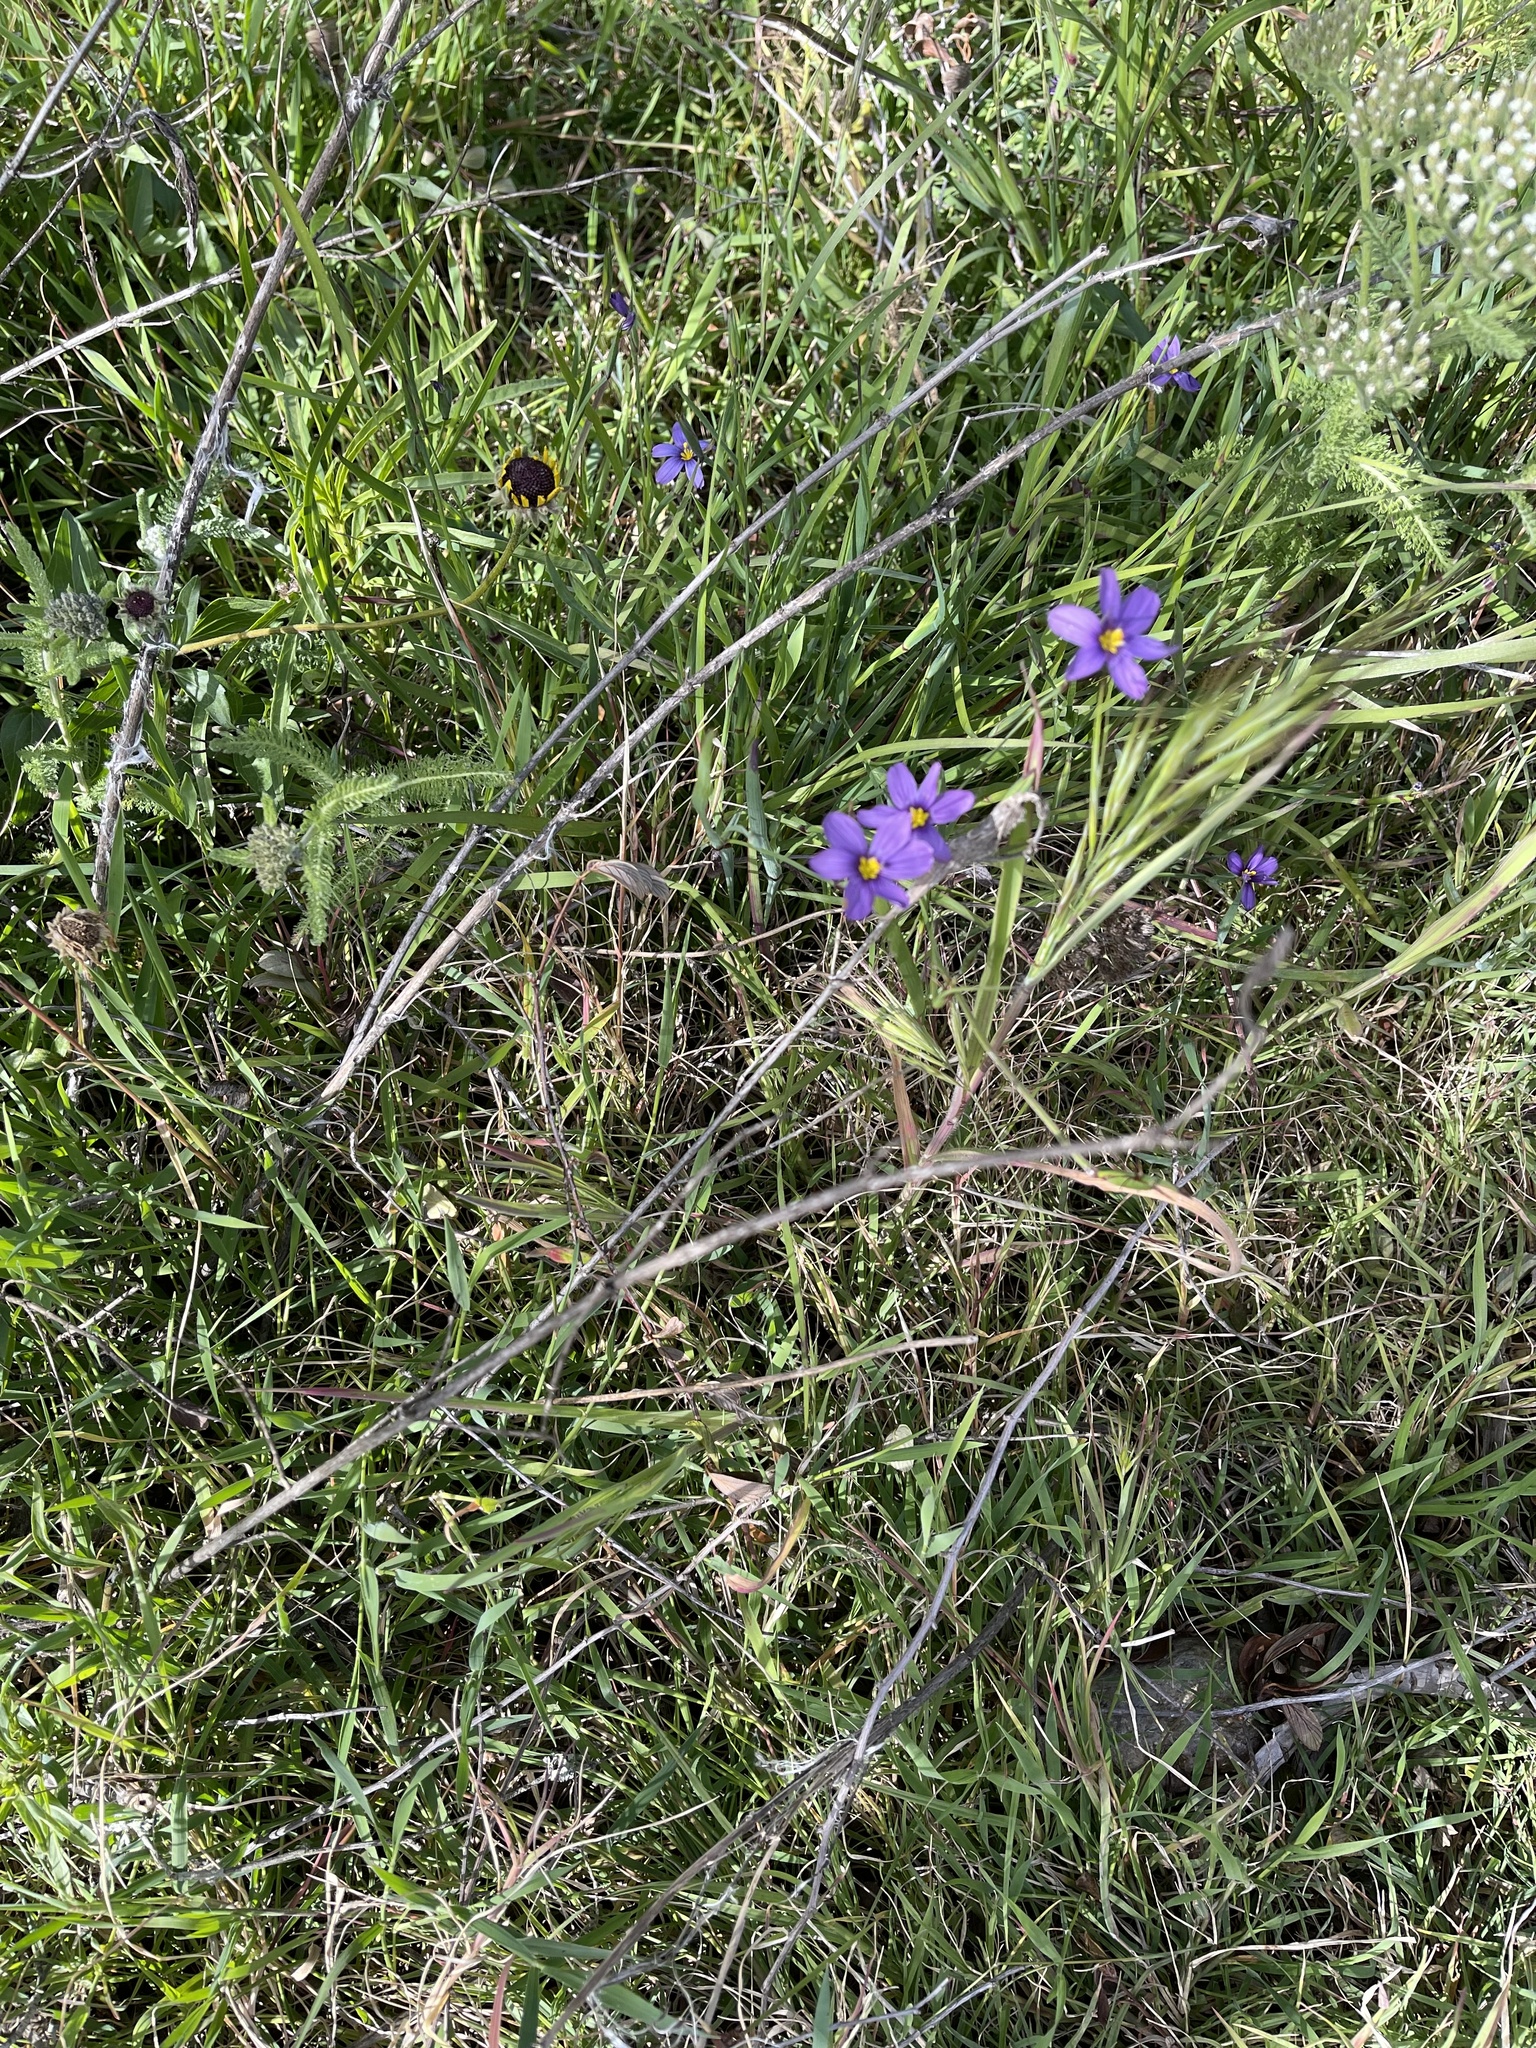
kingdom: Plantae
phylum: Tracheophyta
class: Liliopsida
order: Asparagales
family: Iridaceae
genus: Sisyrinchium
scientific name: Sisyrinchium bellum
